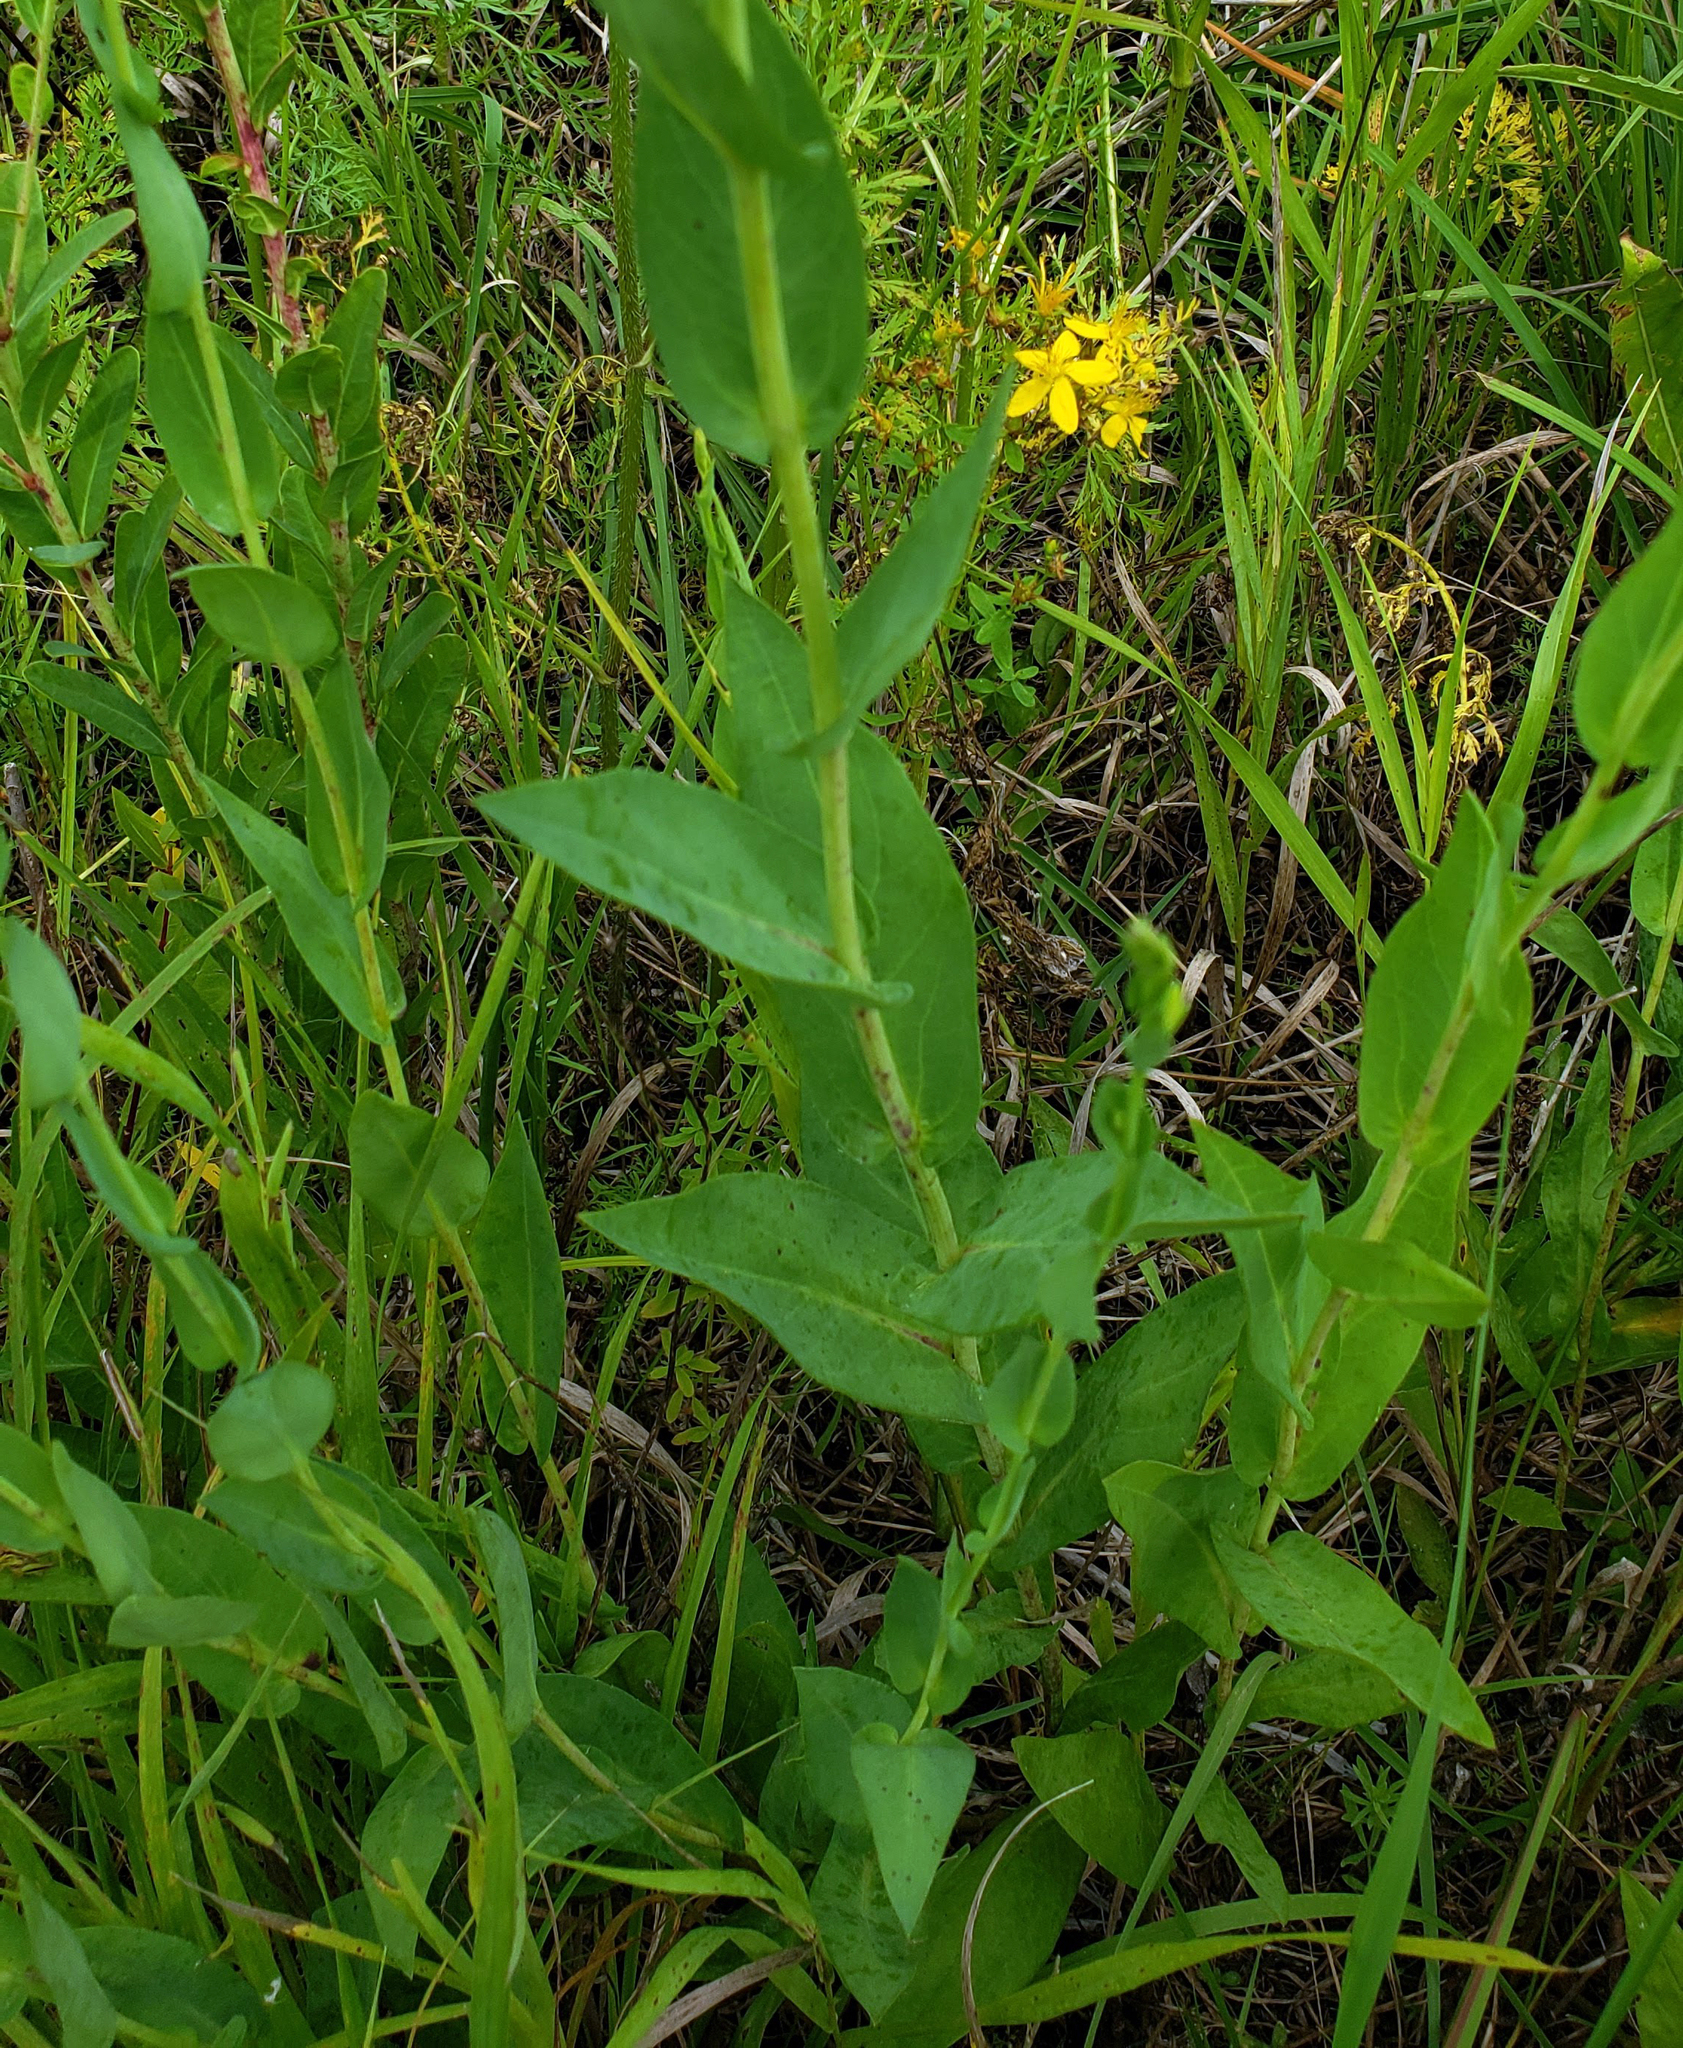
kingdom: Plantae
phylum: Tracheophyta
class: Magnoliopsida
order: Asterales
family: Asteraceae
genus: Symphyotrichum
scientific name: Symphyotrichum laeve
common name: Glaucous aster
